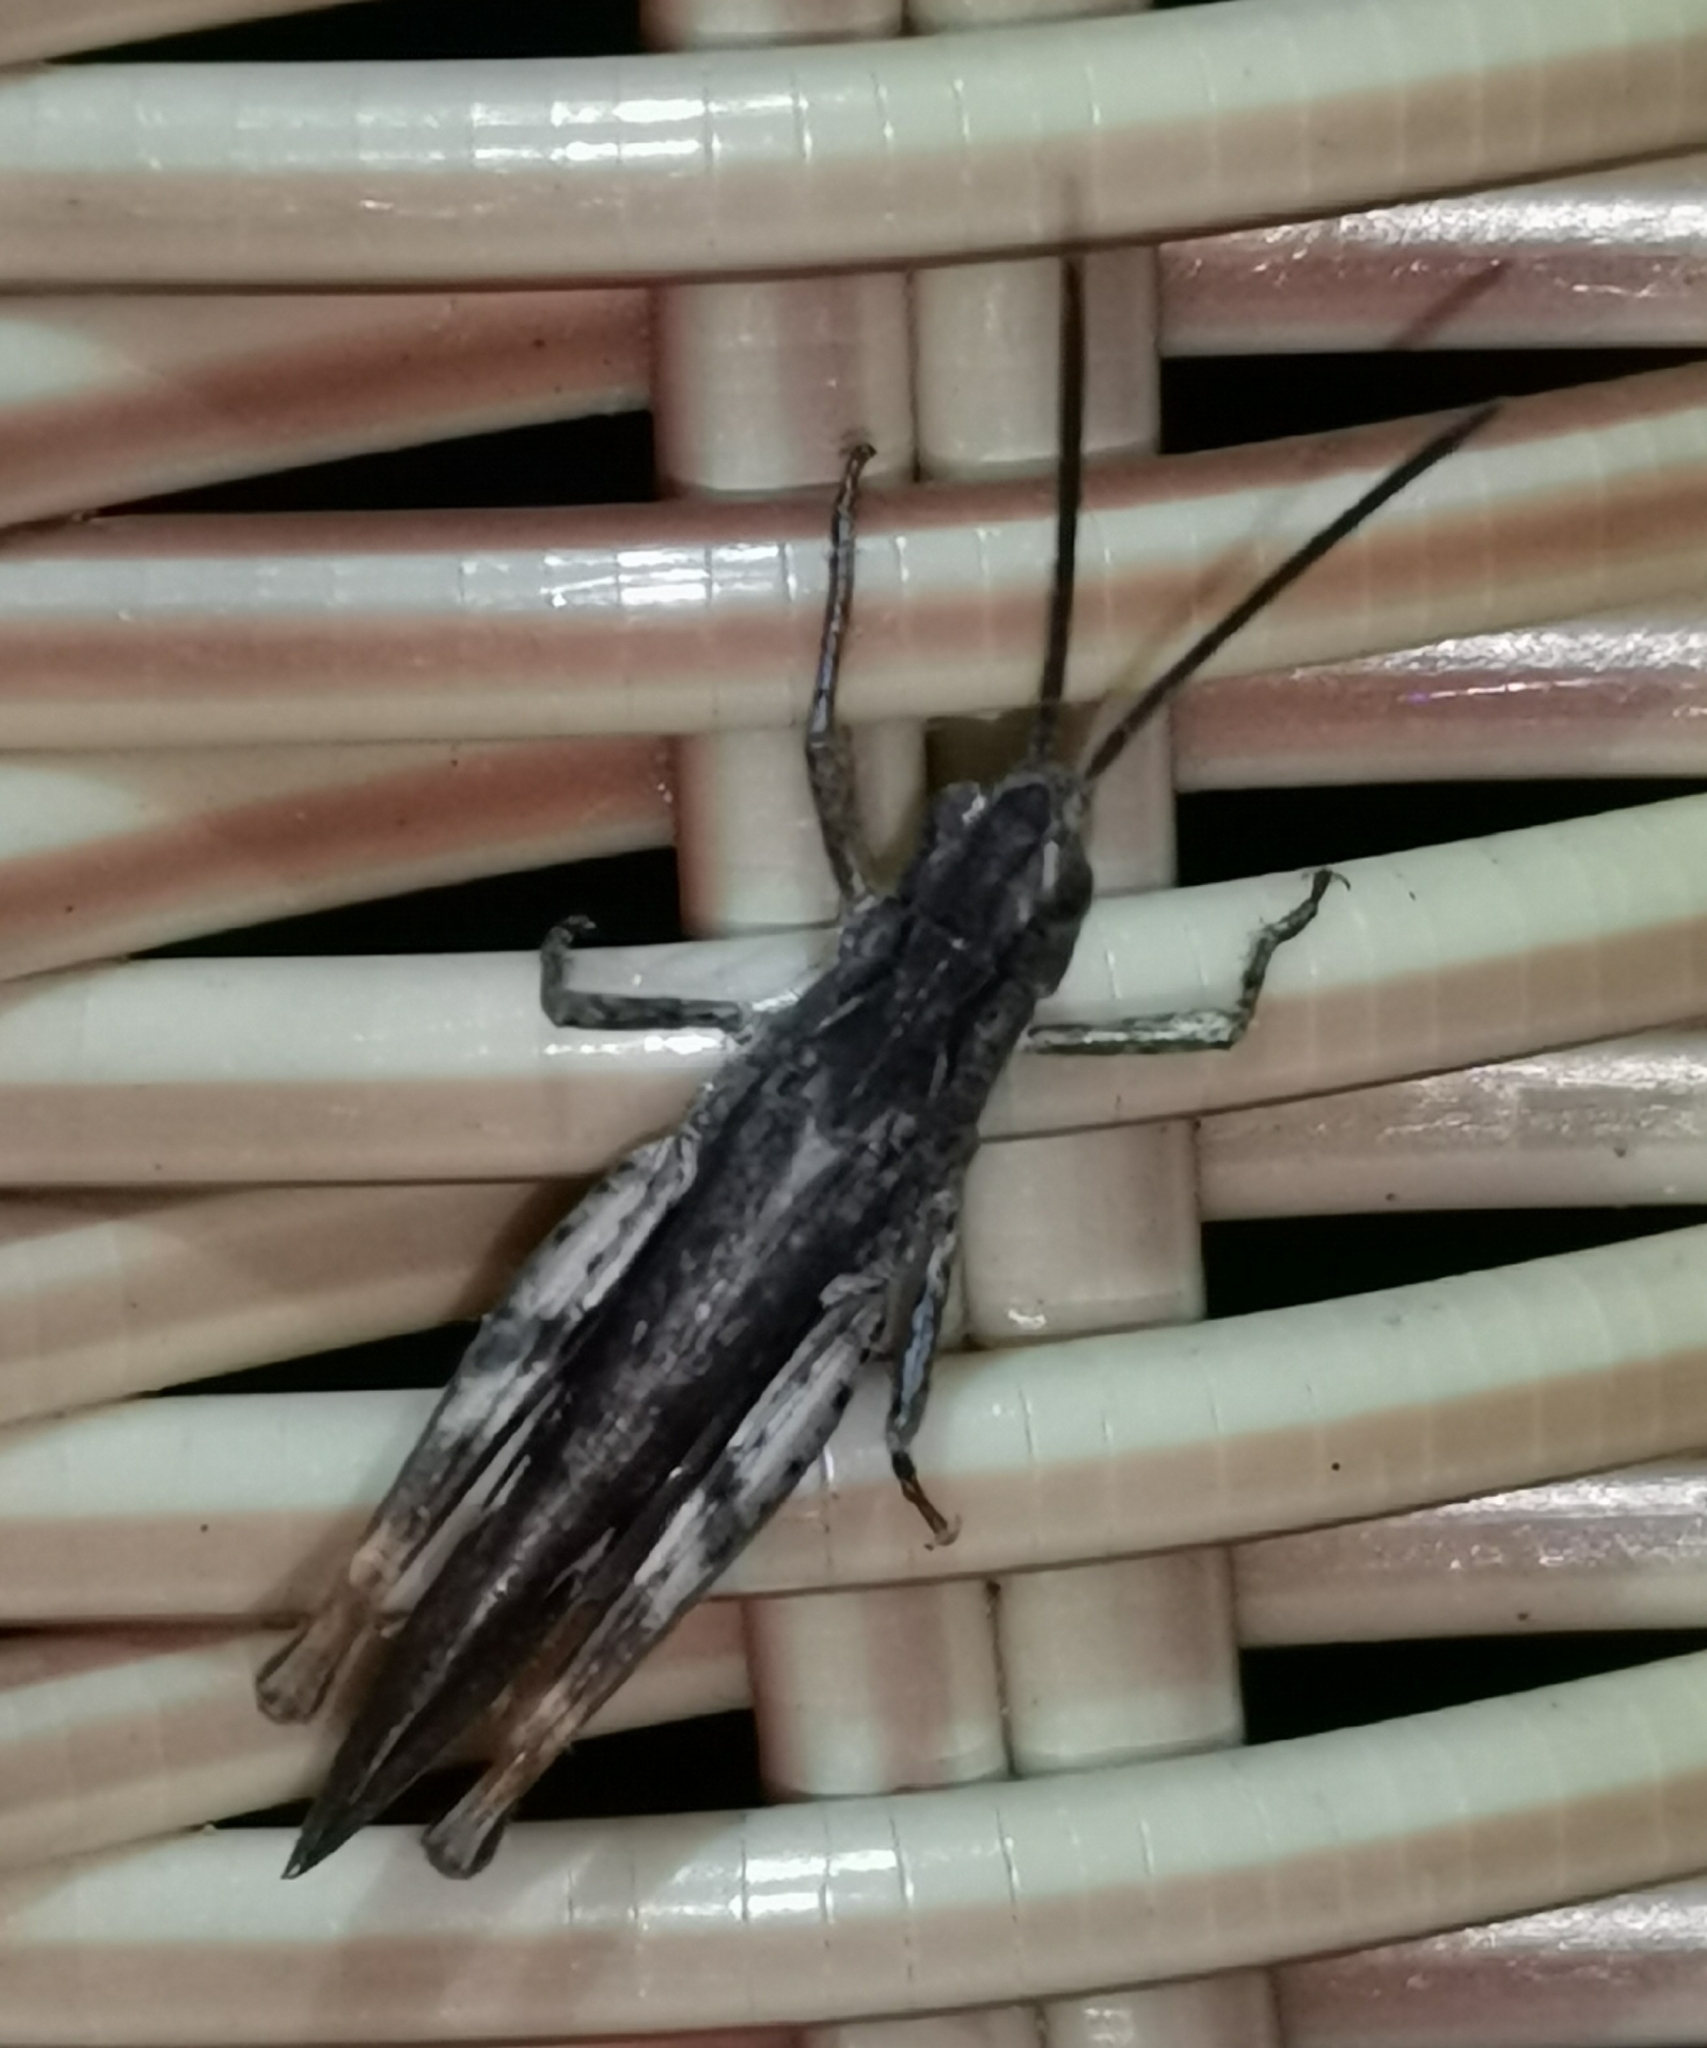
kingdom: Animalia
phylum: Arthropoda
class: Insecta
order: Orthoptera
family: Acrididae
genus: Chorthippus
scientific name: Chorthippus brunneus
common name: Field grasshopper
